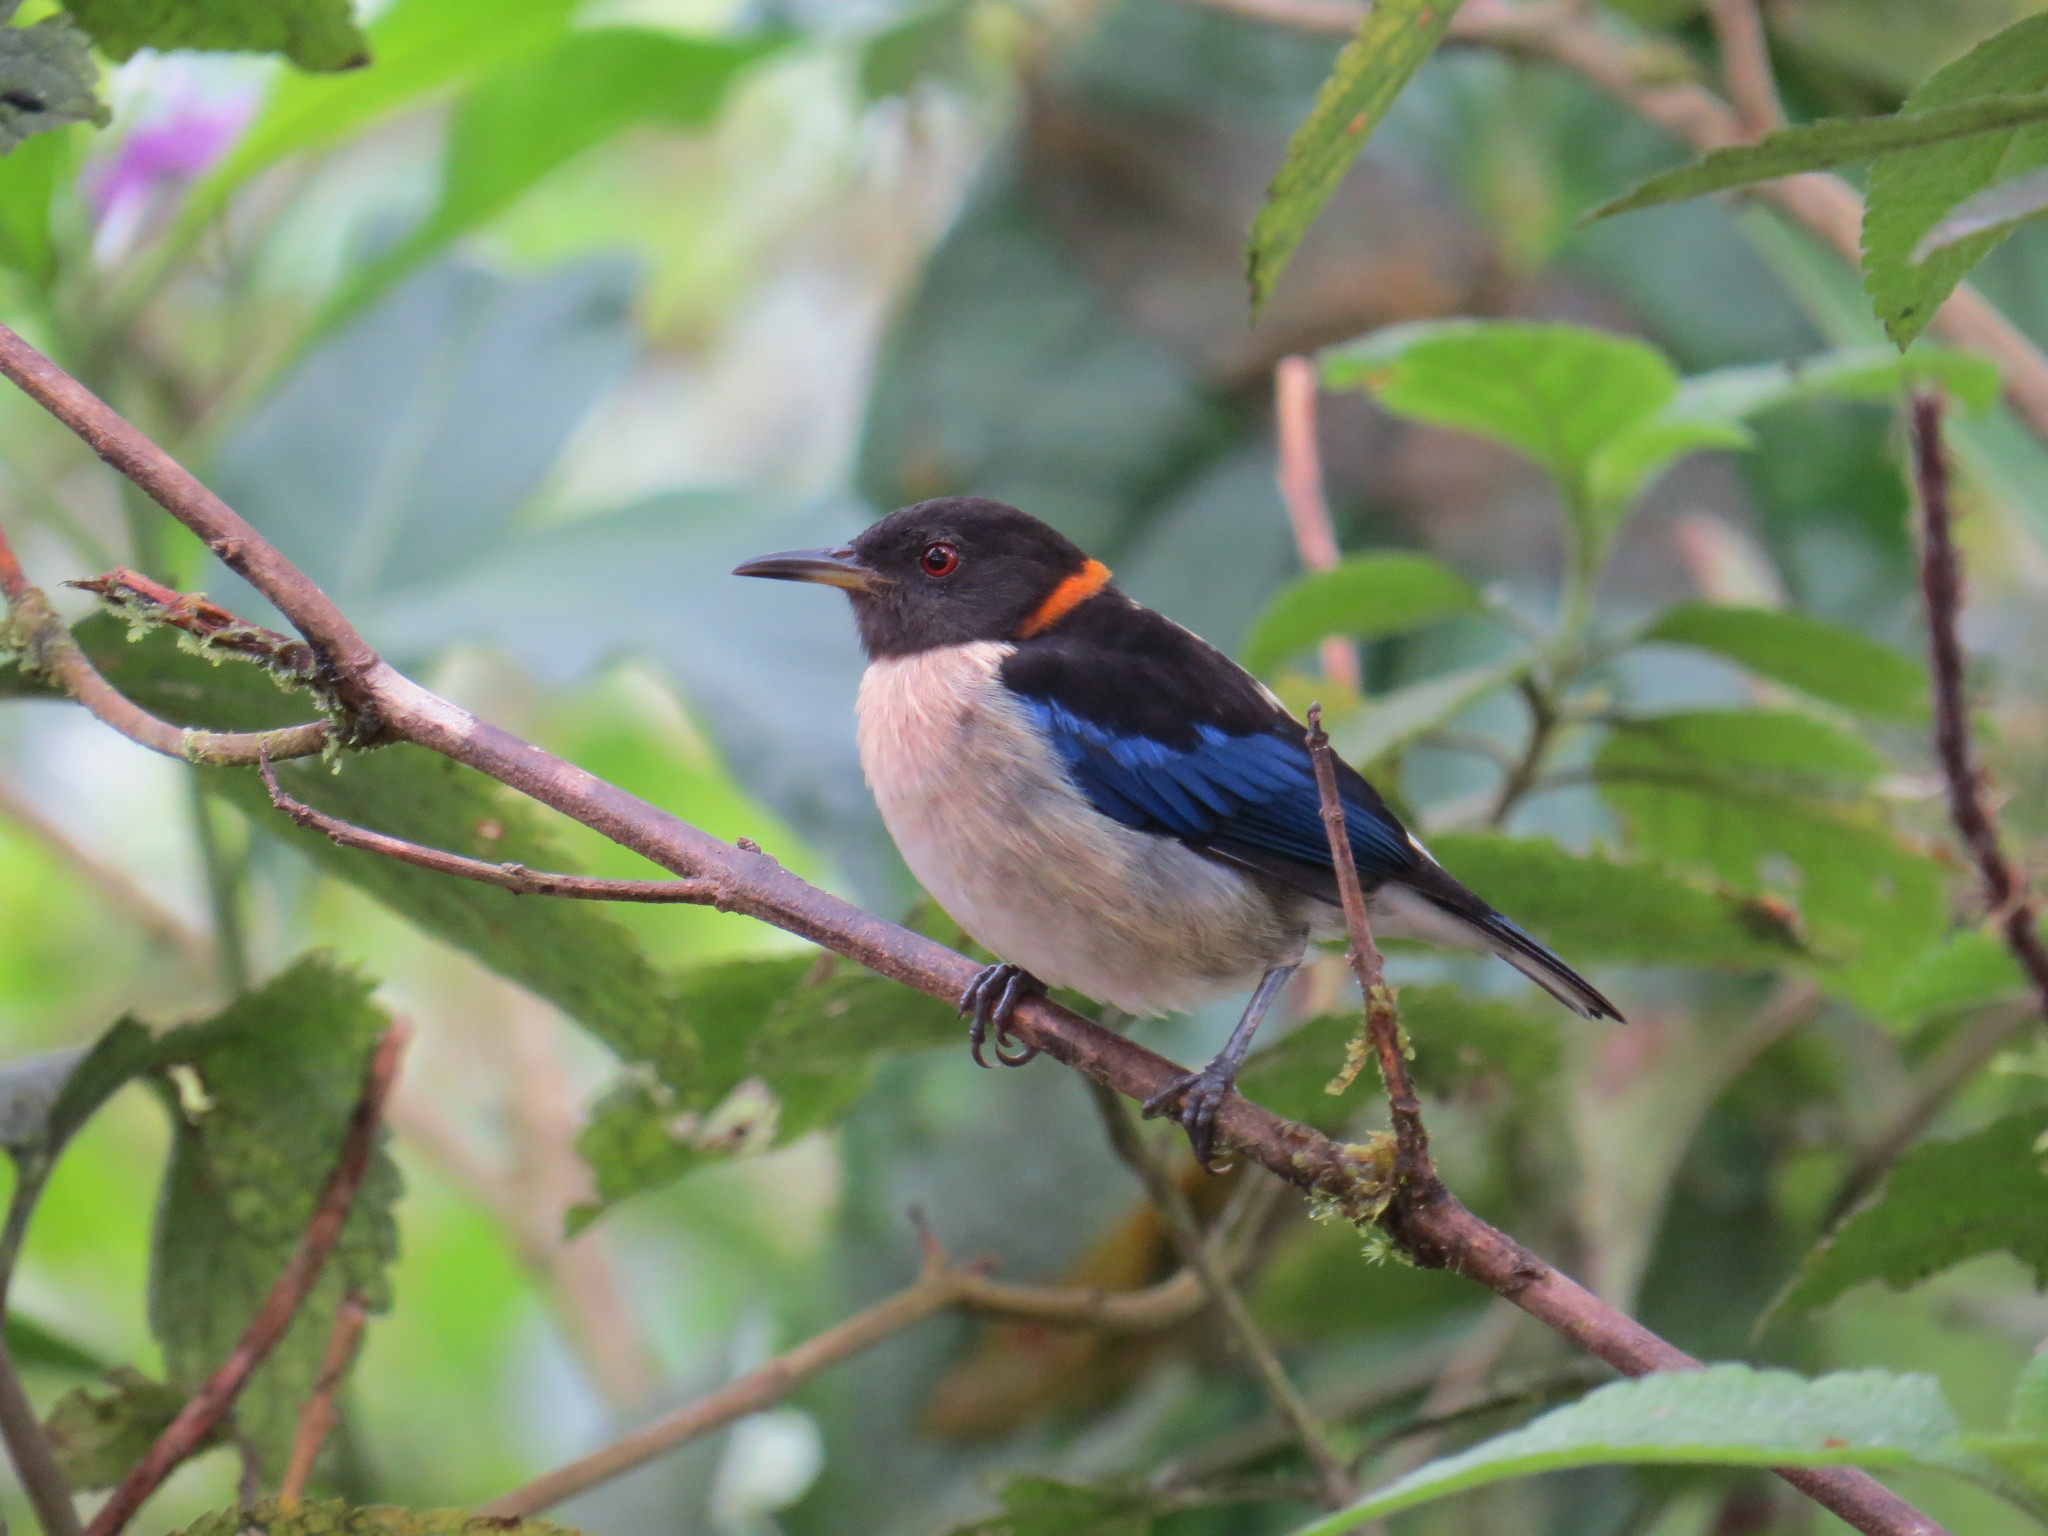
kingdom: Animalia
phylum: Chordata
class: Aves
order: Passeriformes
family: Thraupidae
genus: Iridophanes
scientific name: Iridophanes pulcherrimus
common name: Golden-collared honeycreeper
